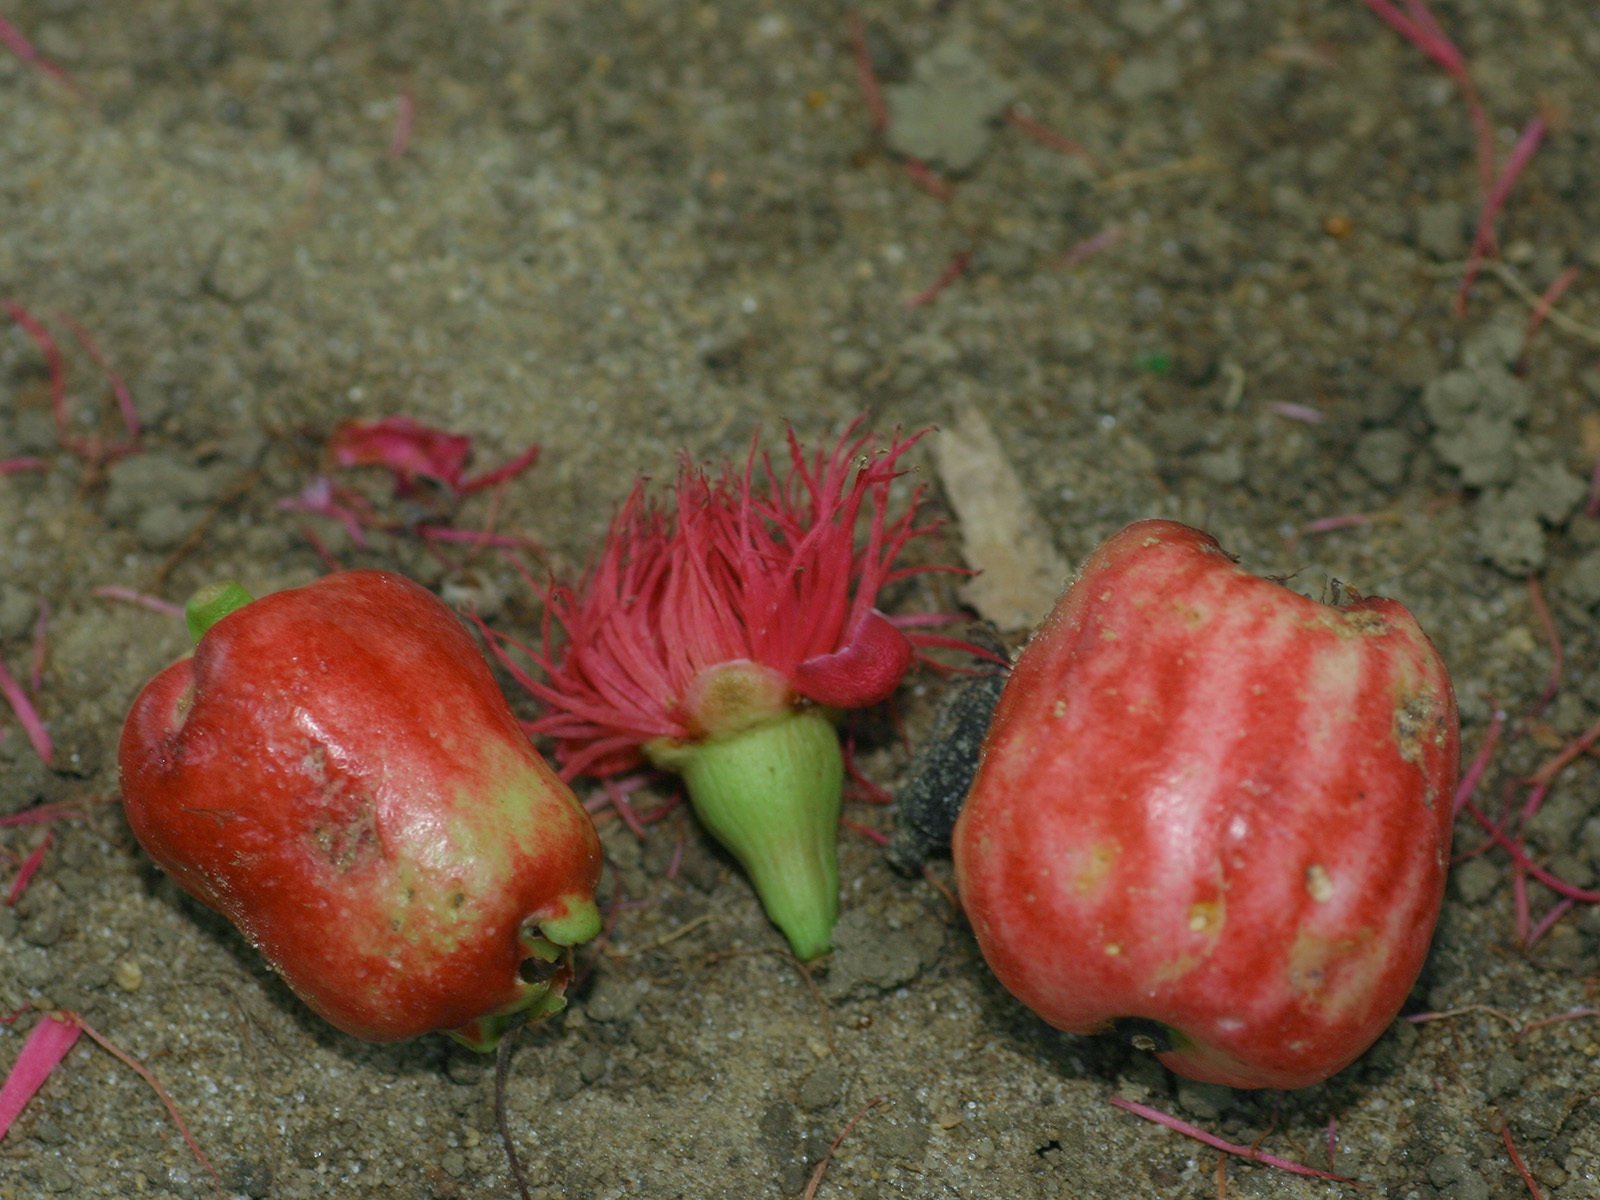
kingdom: Plantae
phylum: Tracheophyta
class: Magnoliopsida
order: Myrtales
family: Myrtaceae
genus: Syzygium
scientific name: Syzygium malaccense
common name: Malaysian apple
